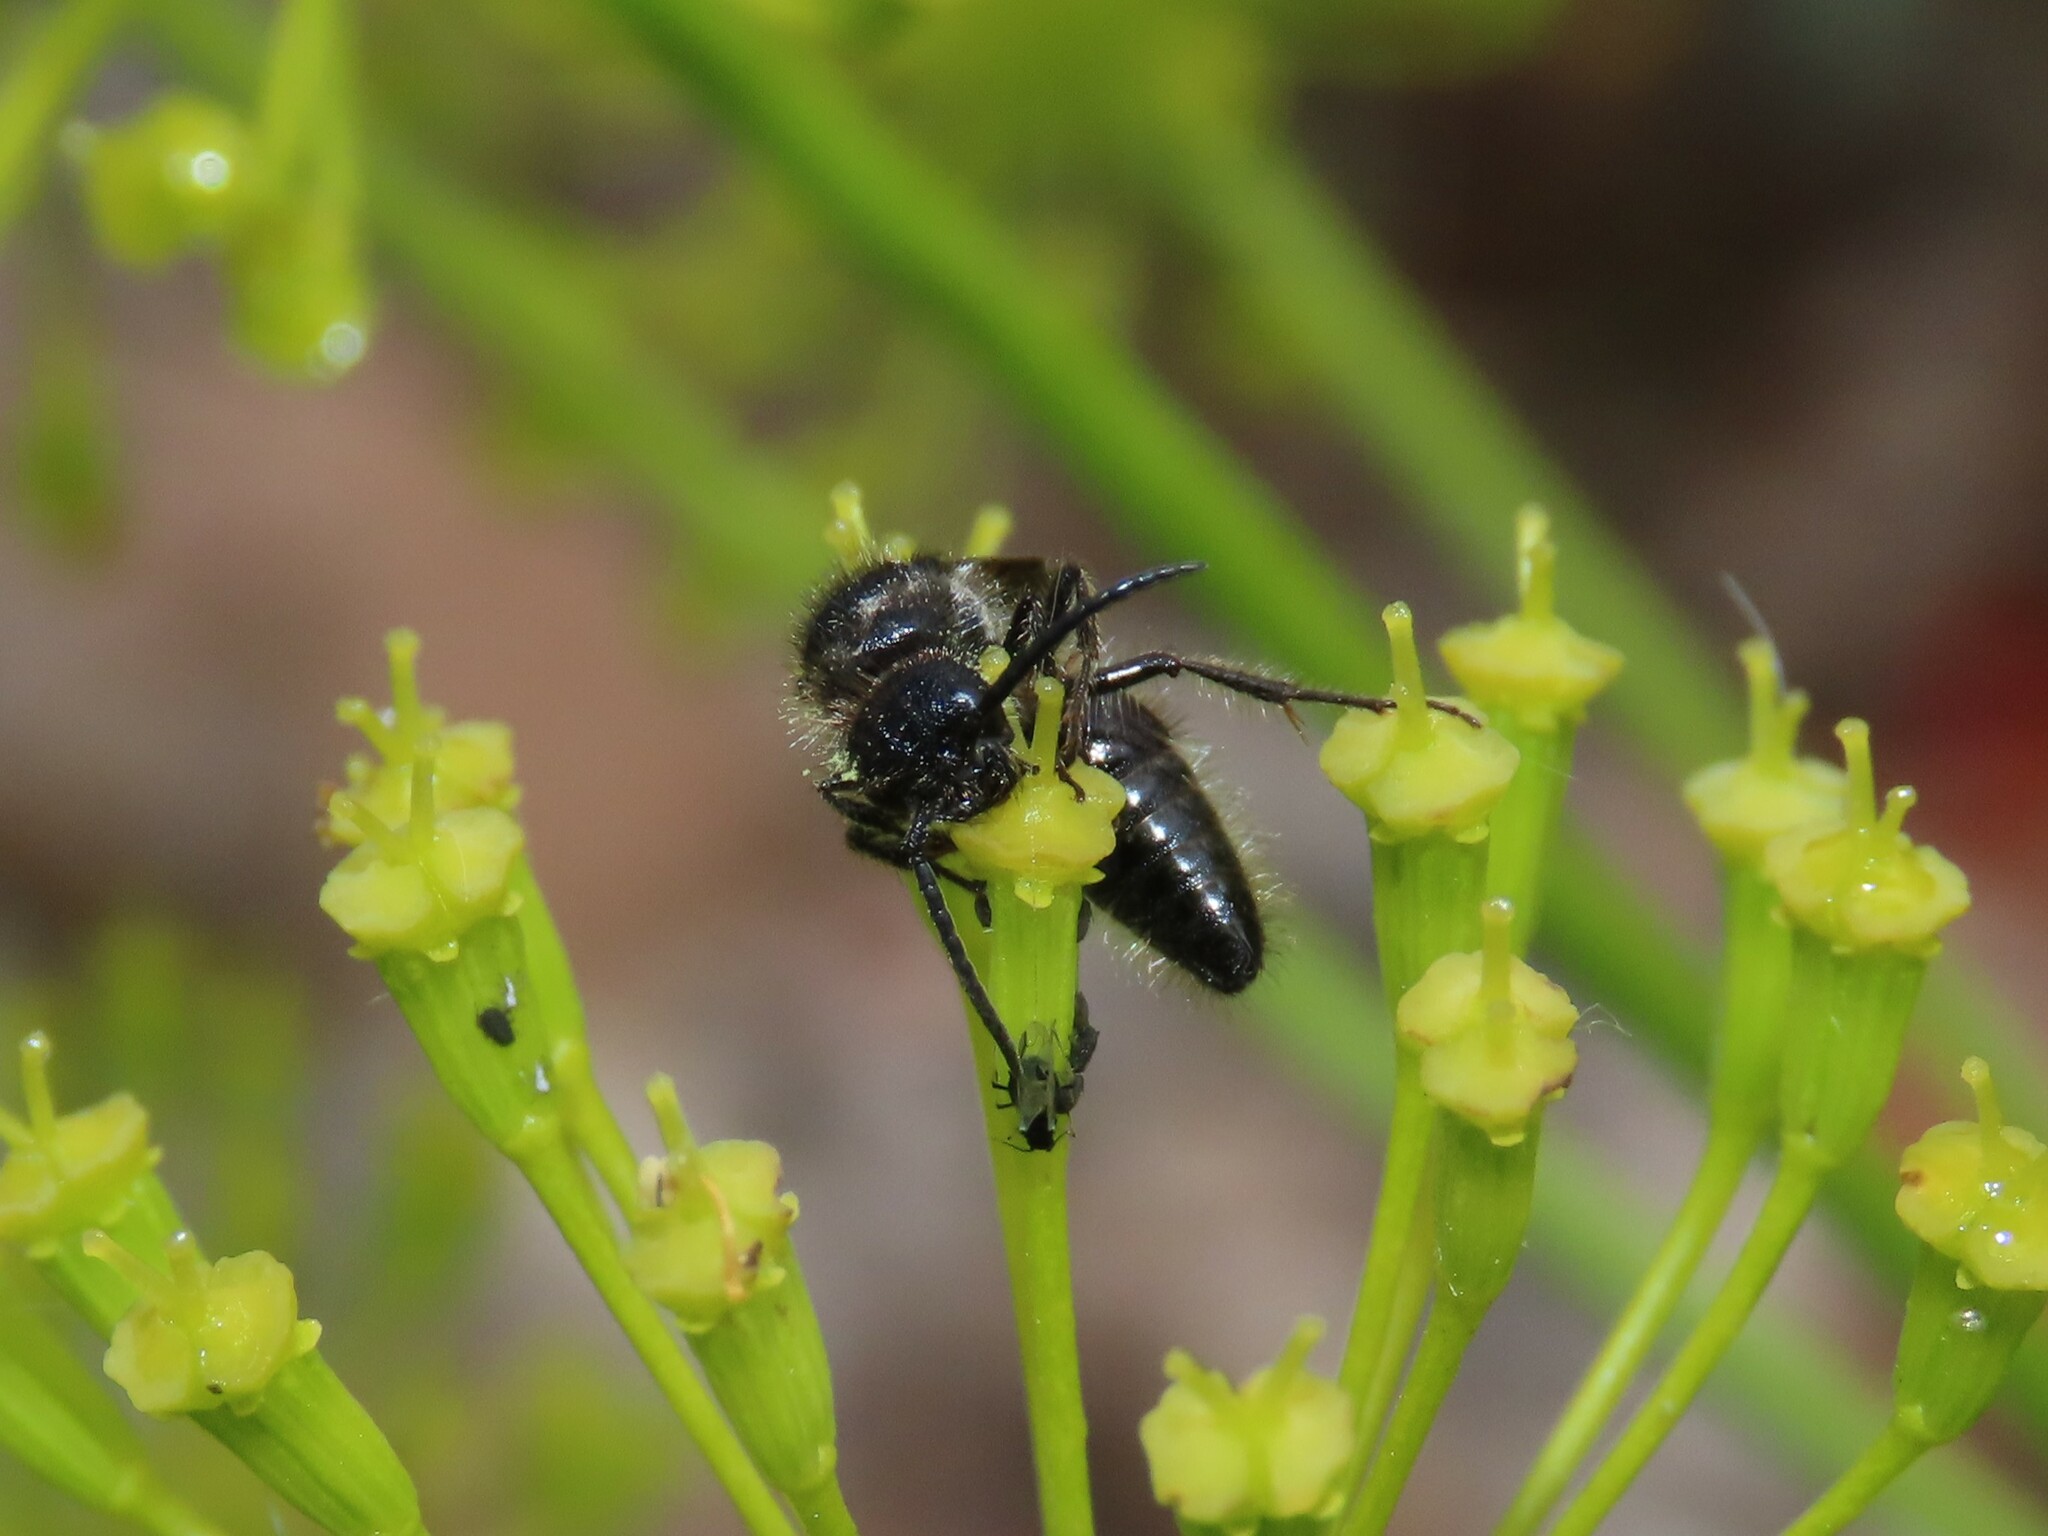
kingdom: Animalia
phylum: Arthropoda
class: Insecta
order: Hymenoptera
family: Mutillidae
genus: Tropidotilla
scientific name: Tropidotilla litoralis
